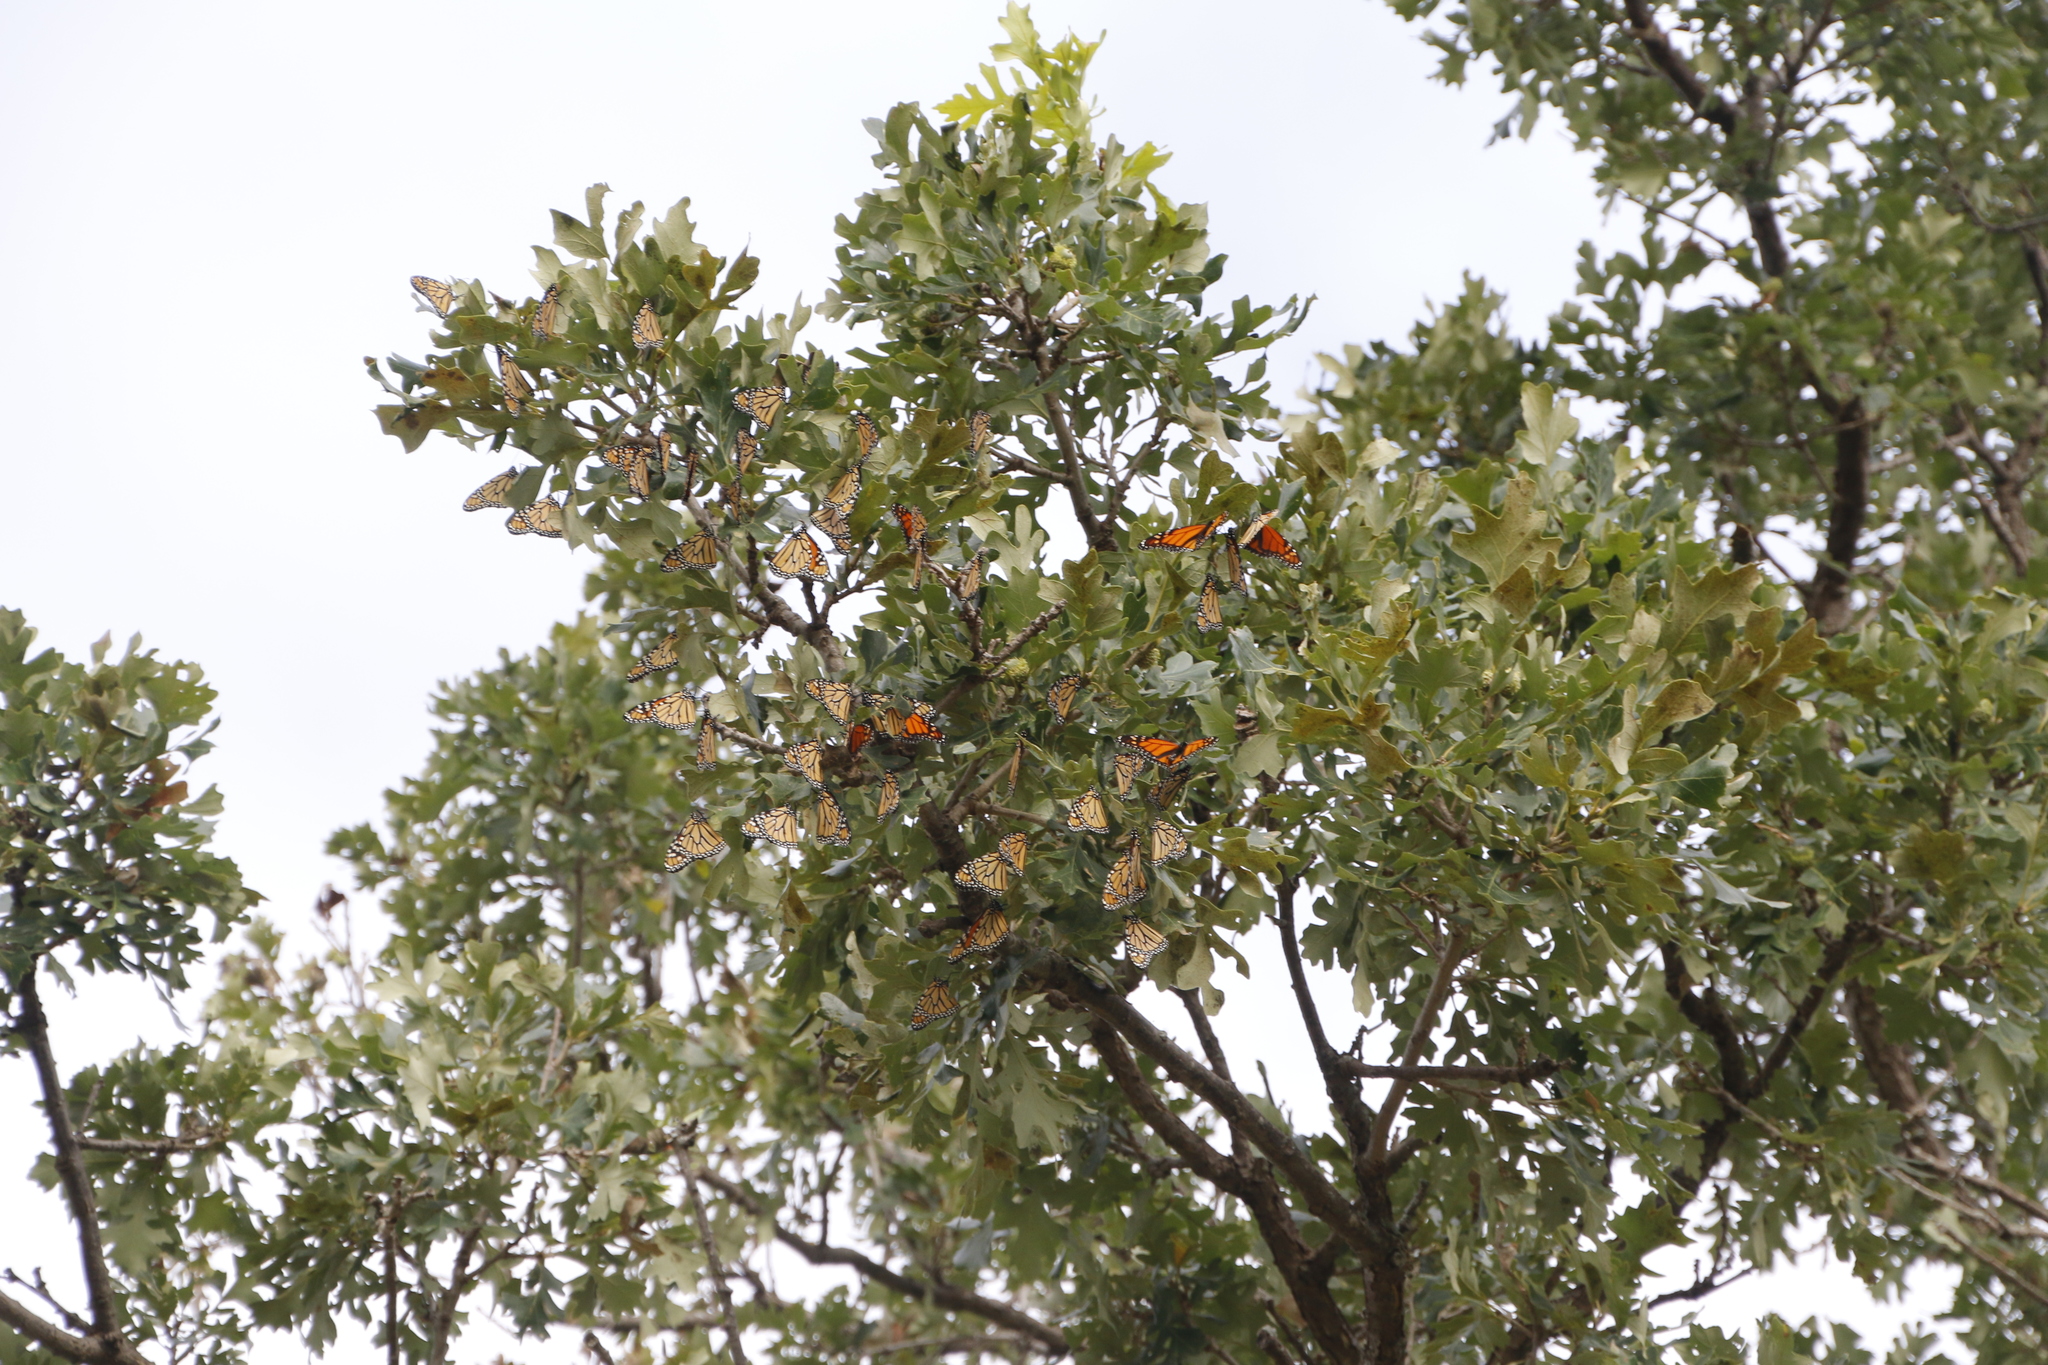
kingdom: Animalia
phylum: Arthropoda
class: Insecta
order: Lepidoptera
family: Nymphalidae
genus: Danaus
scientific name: Danaus plexippus
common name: Monarch
